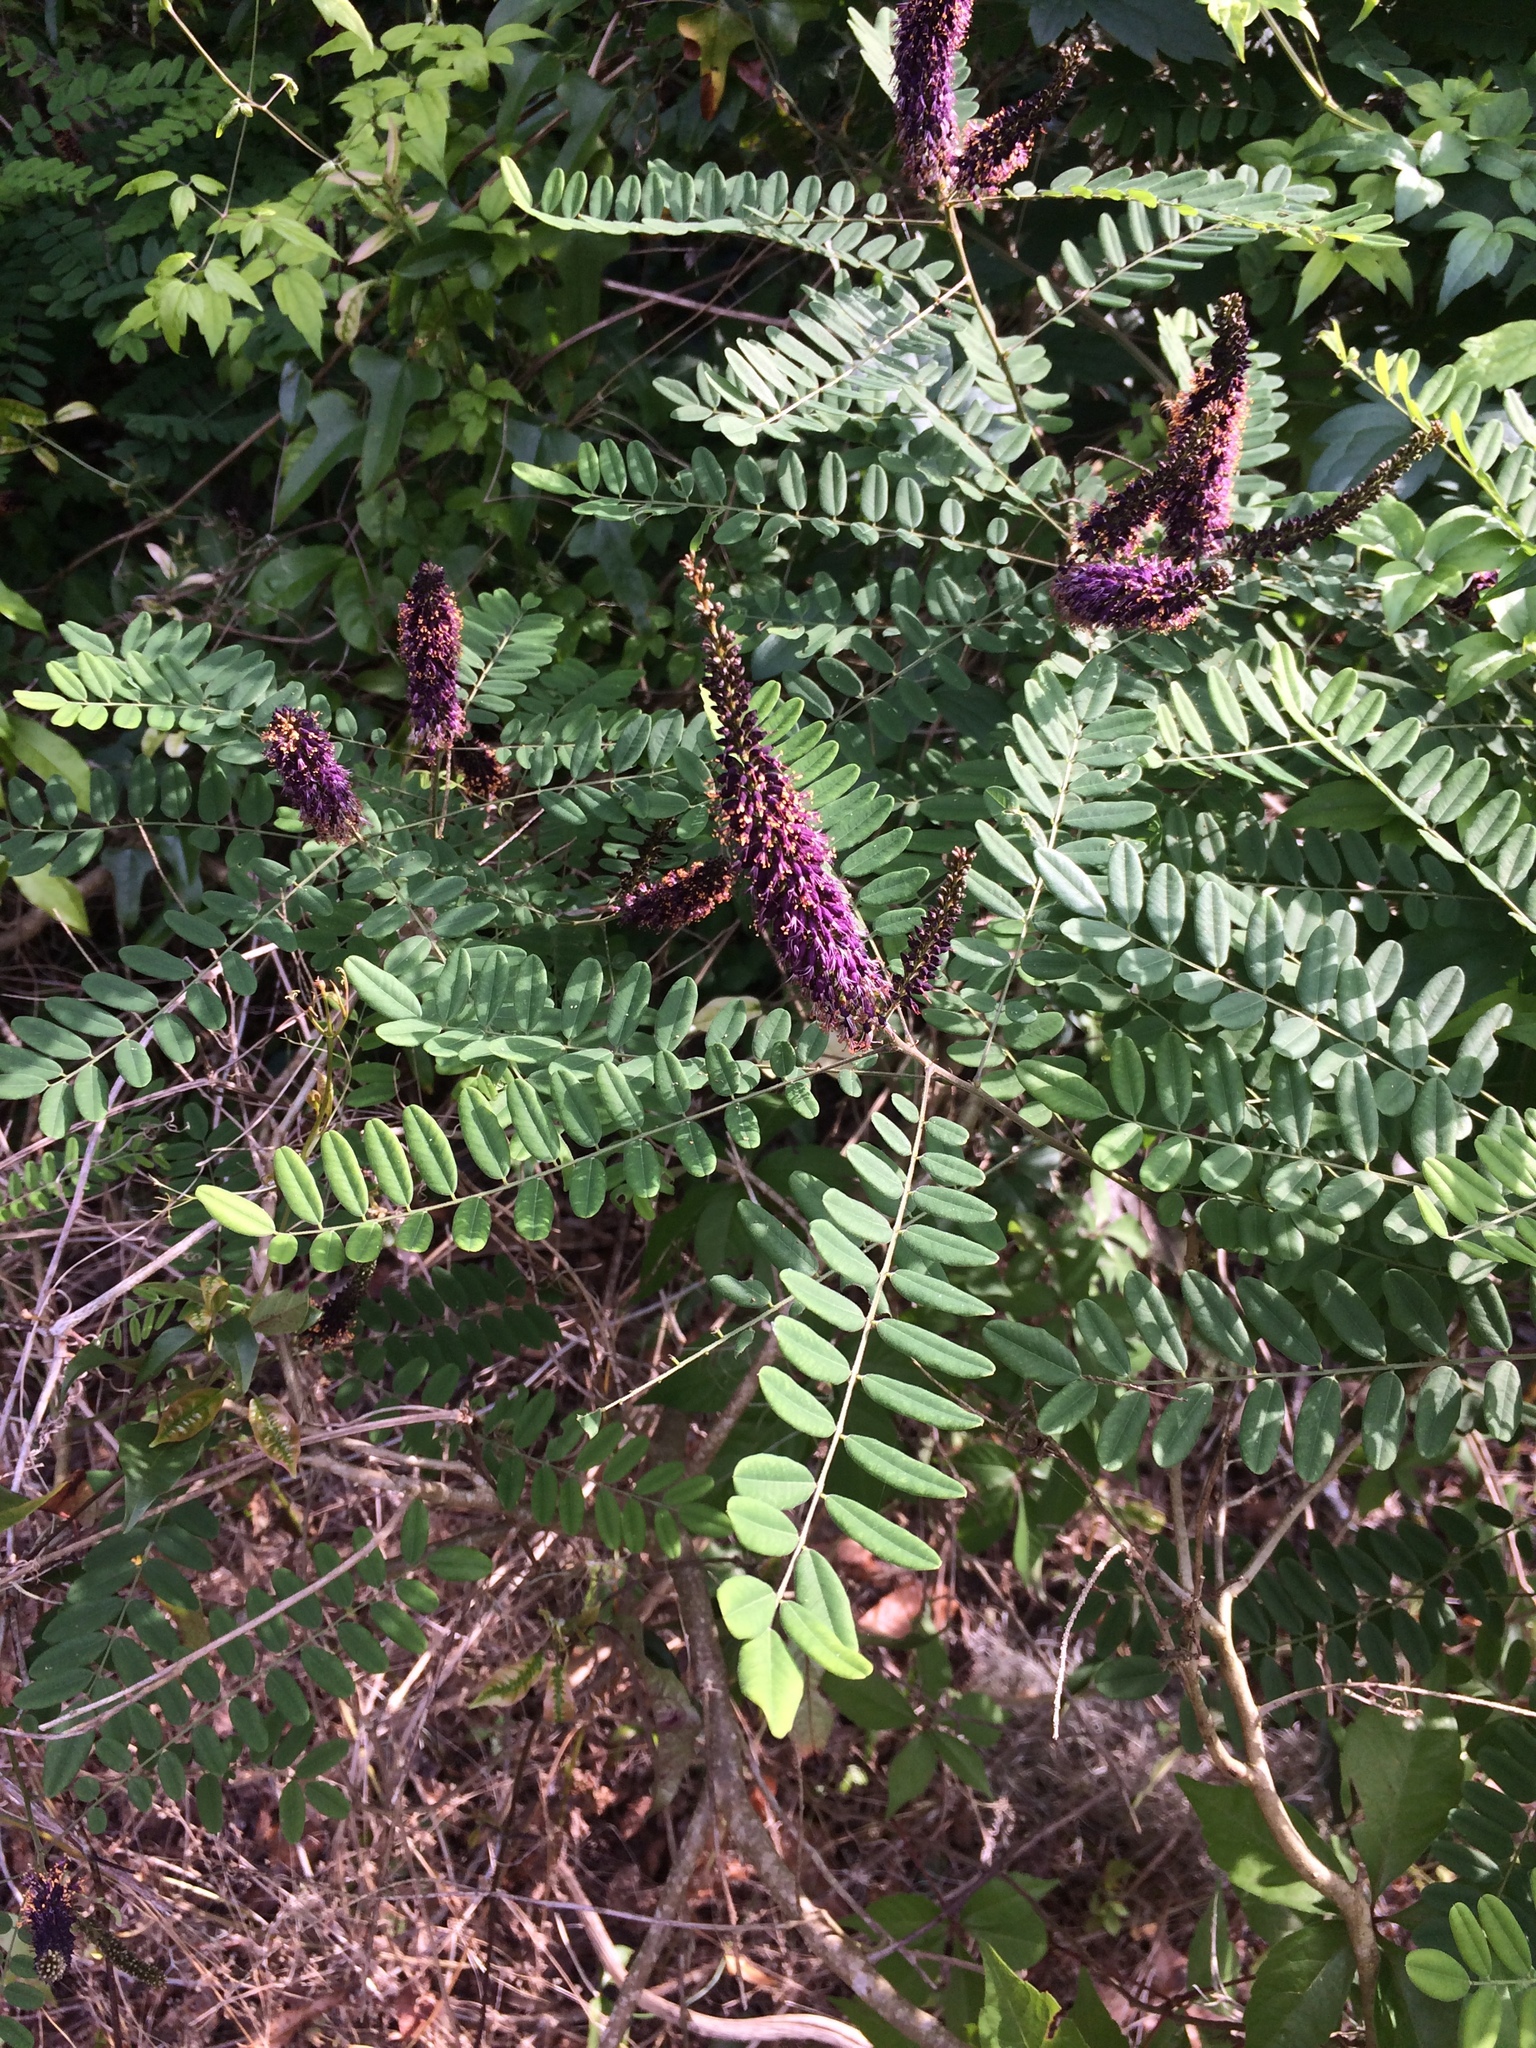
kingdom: Plantae
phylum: Tracheophyta
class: Magnoliopsida
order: Fabales
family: Fabaceae
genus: Amorpha
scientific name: Amorpha fruticosa
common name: False indigo
